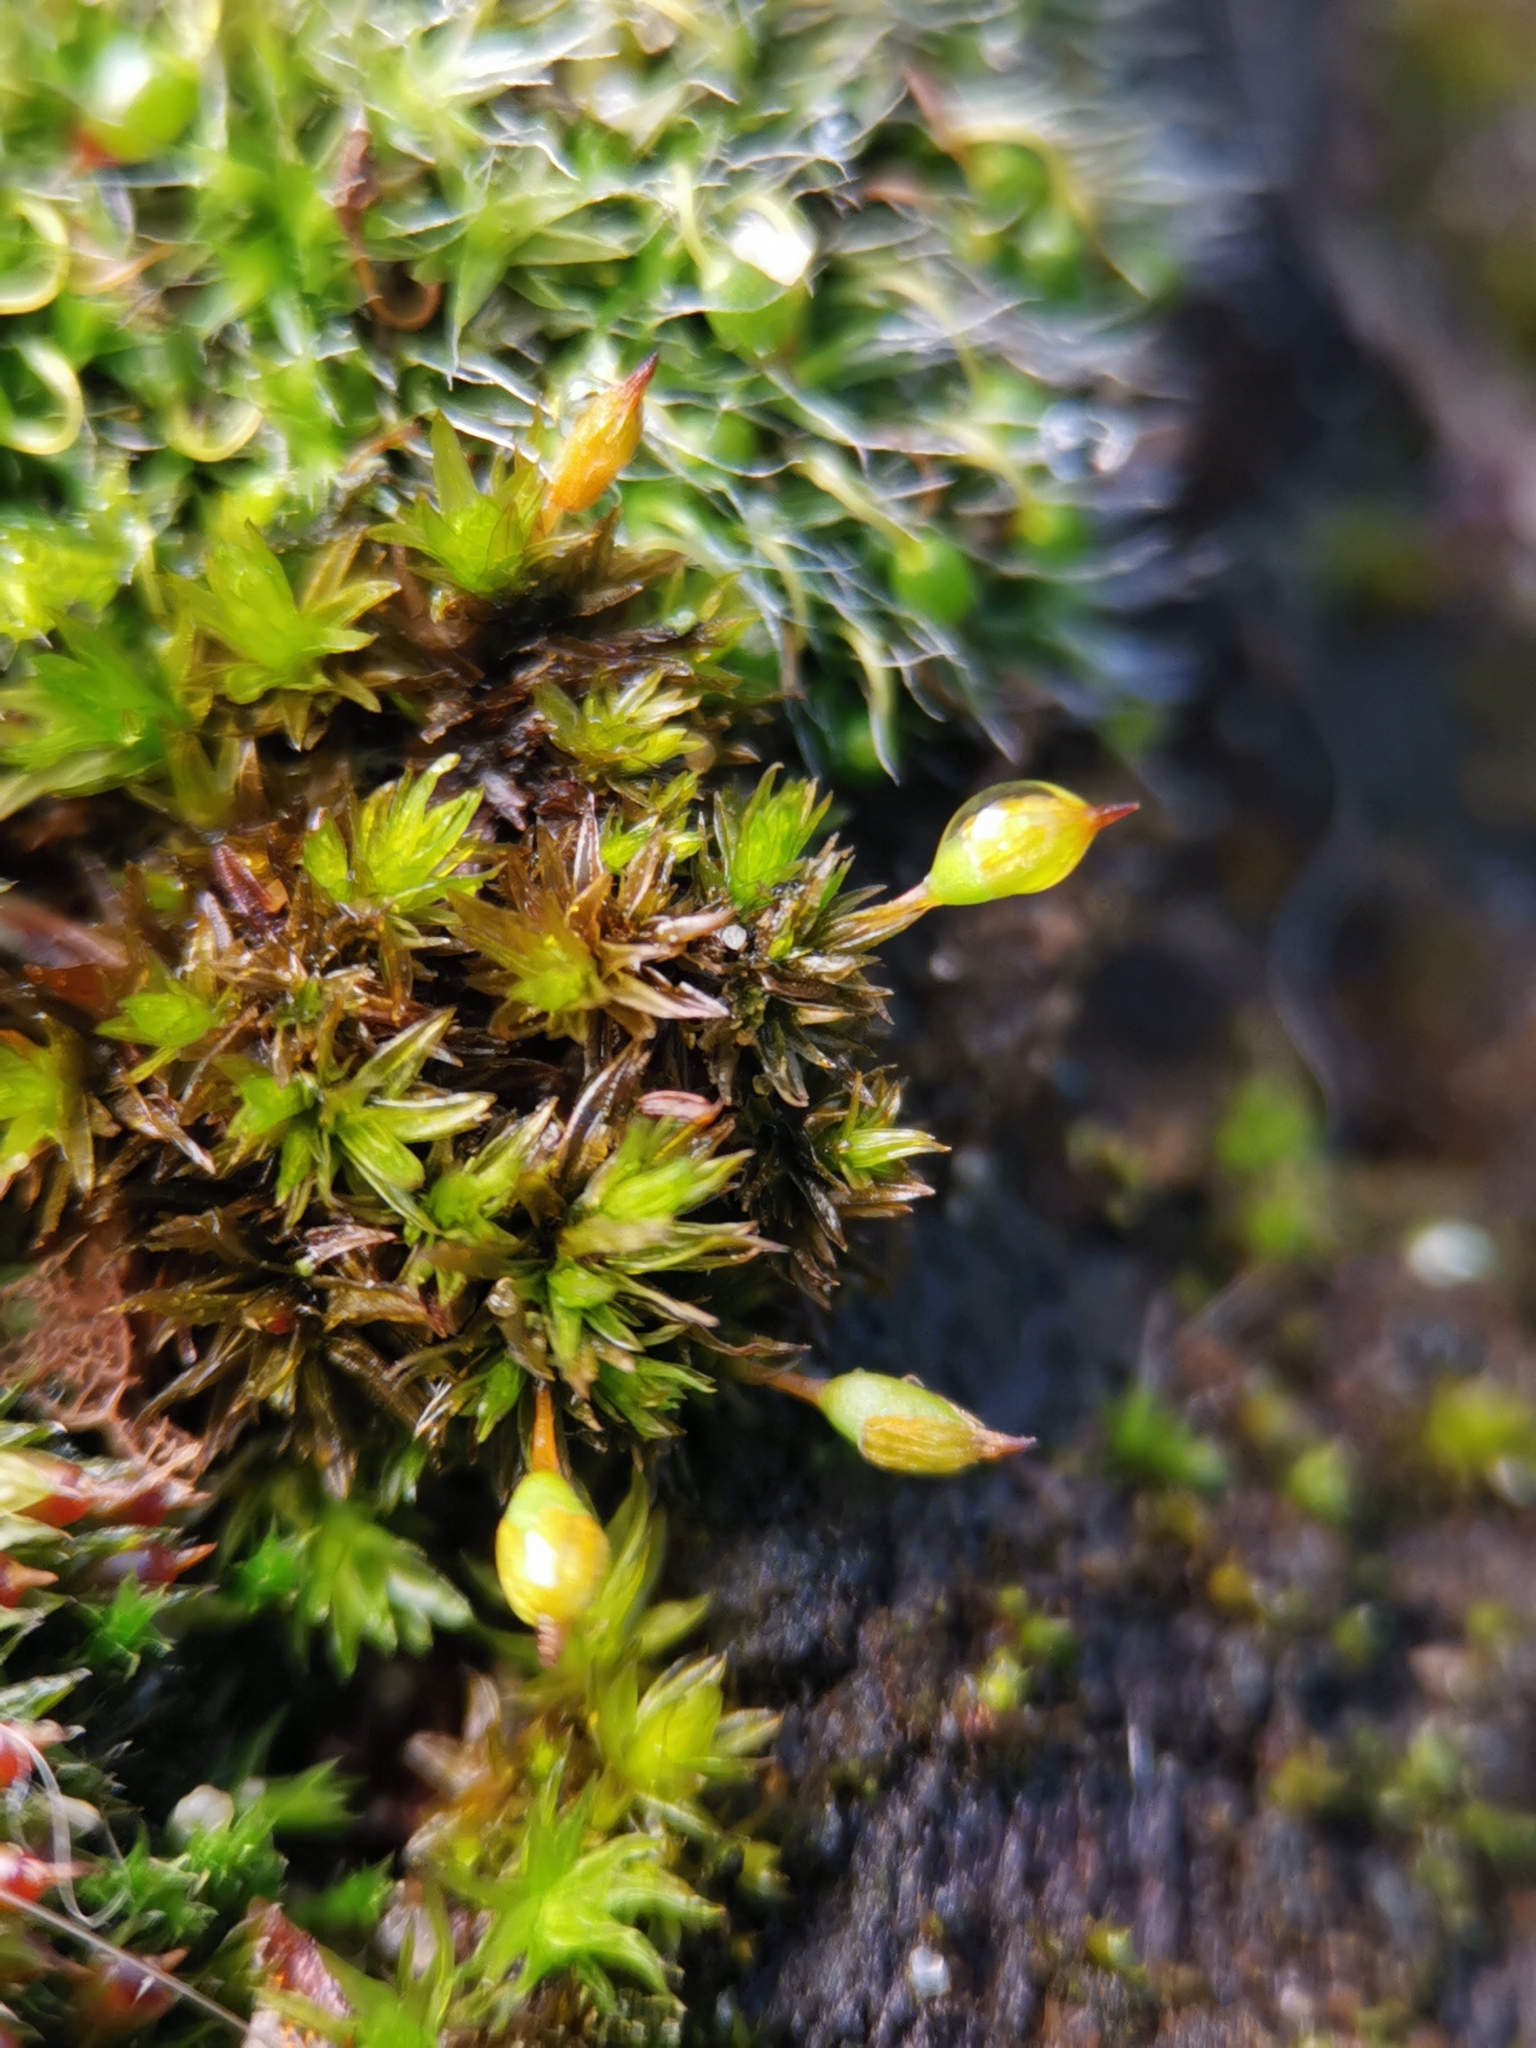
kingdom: Plantae
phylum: Bryophyta
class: Bryopsida
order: Orthotrichales
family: Orthotrichaceae
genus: Orthotrichum
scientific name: Orthotrichum anomalum
